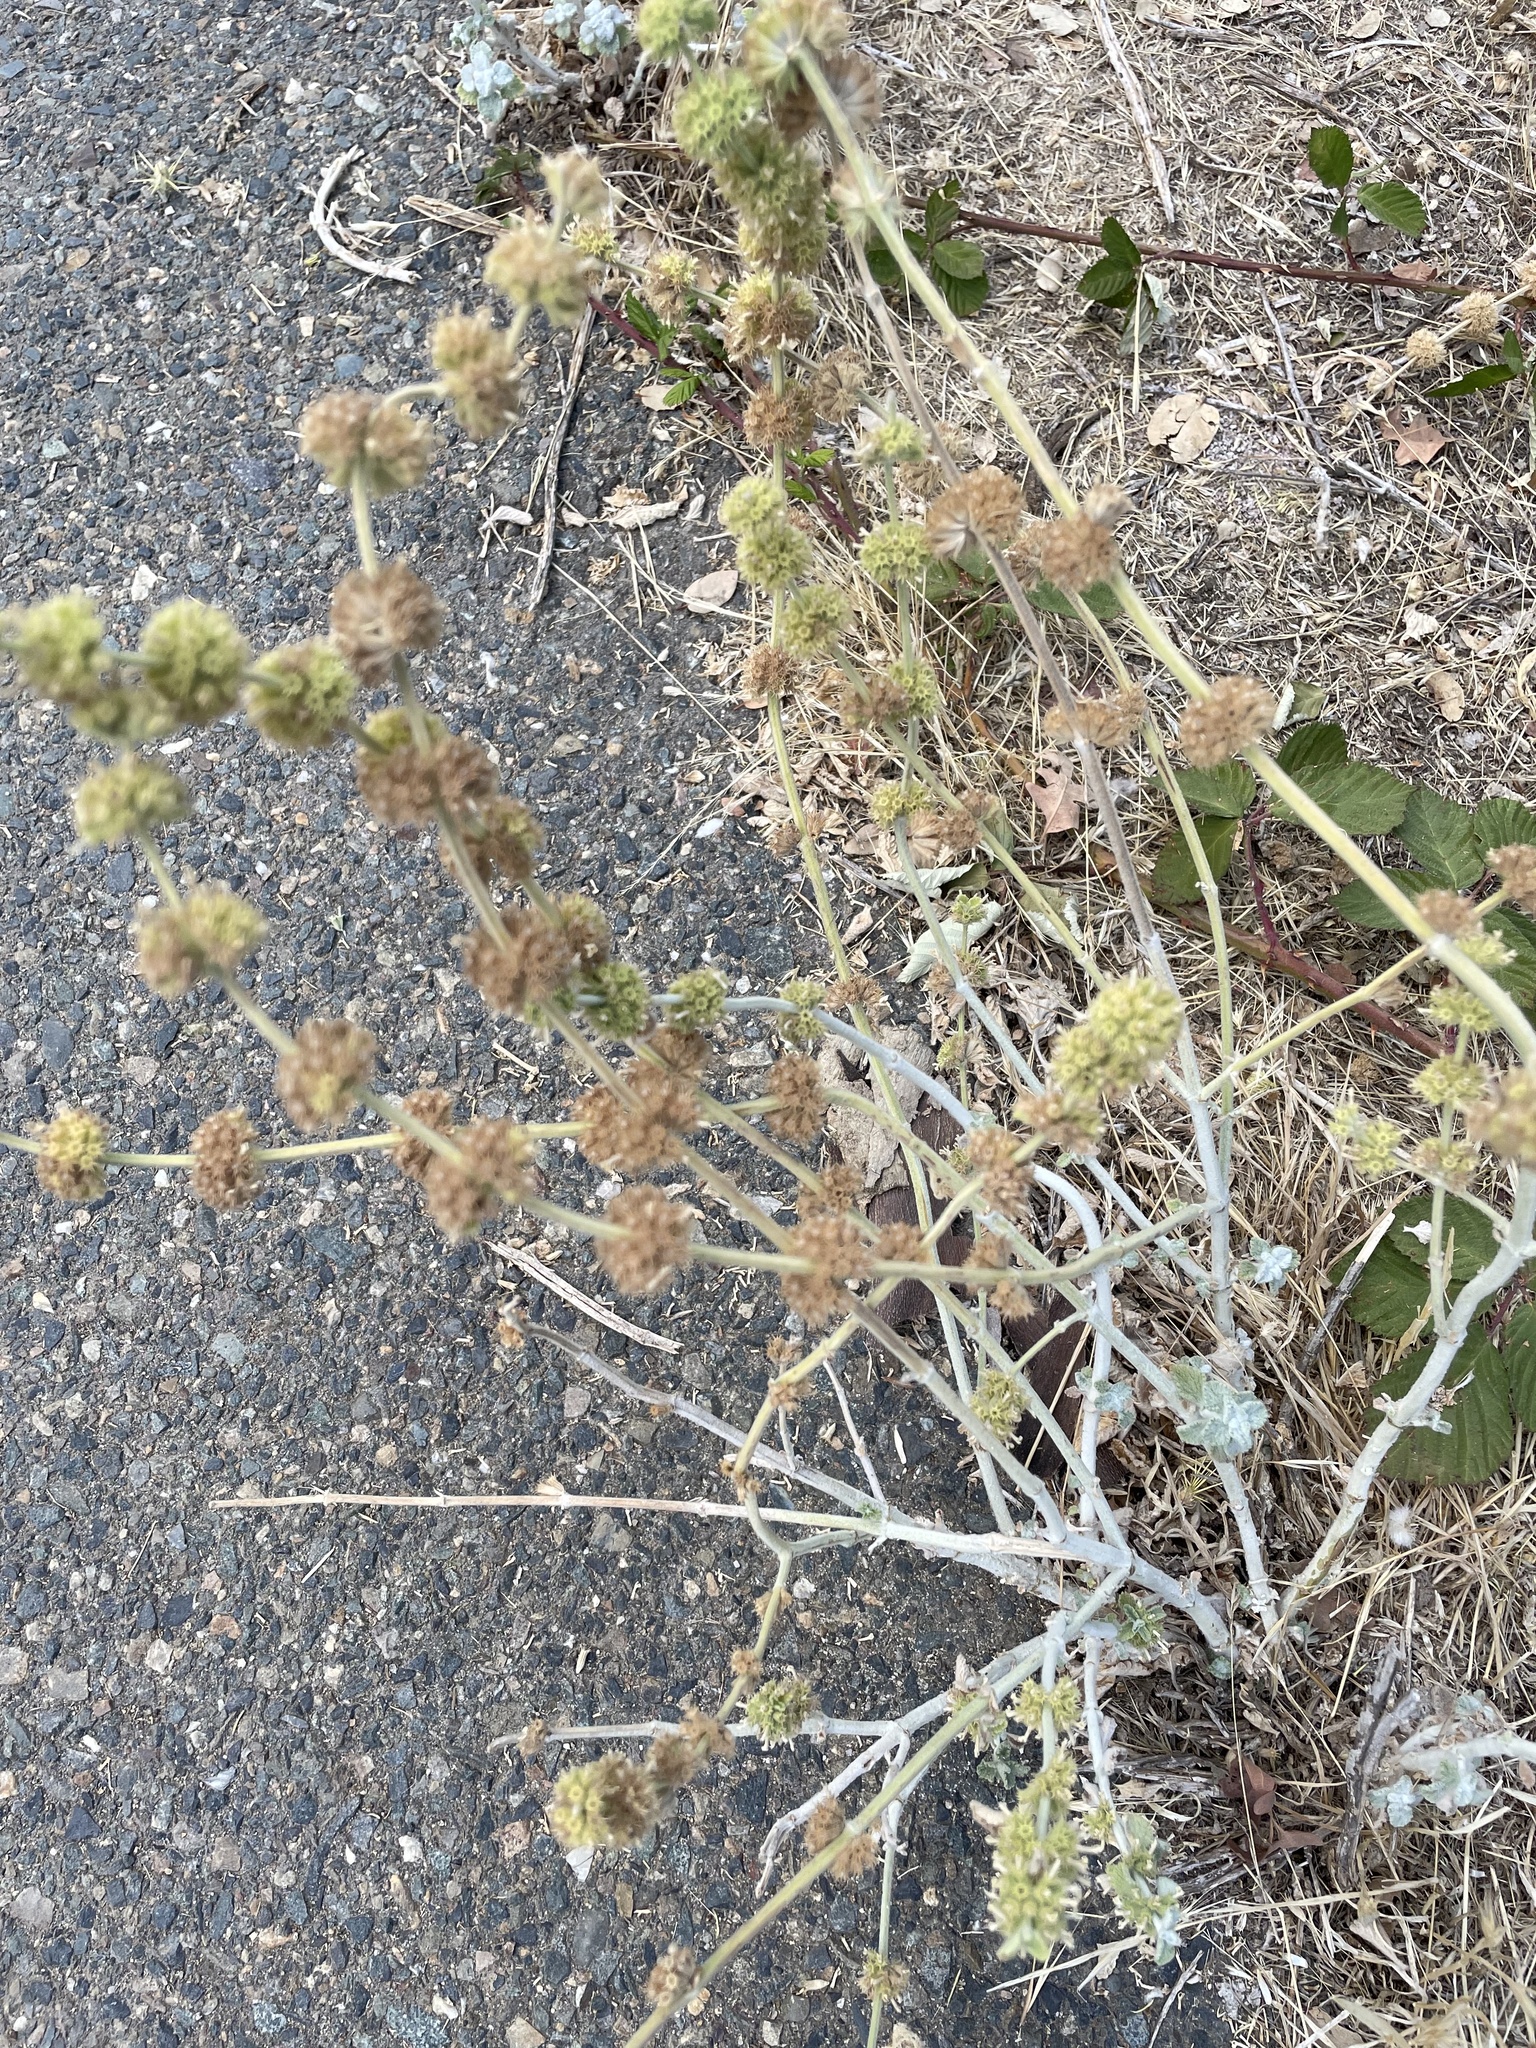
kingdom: Plantae
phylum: Tracheophyta
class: Magnoliopsida
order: Lamiales
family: Lamiaceae
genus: Marrubium
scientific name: Marrubium vulgare
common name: Horehound
